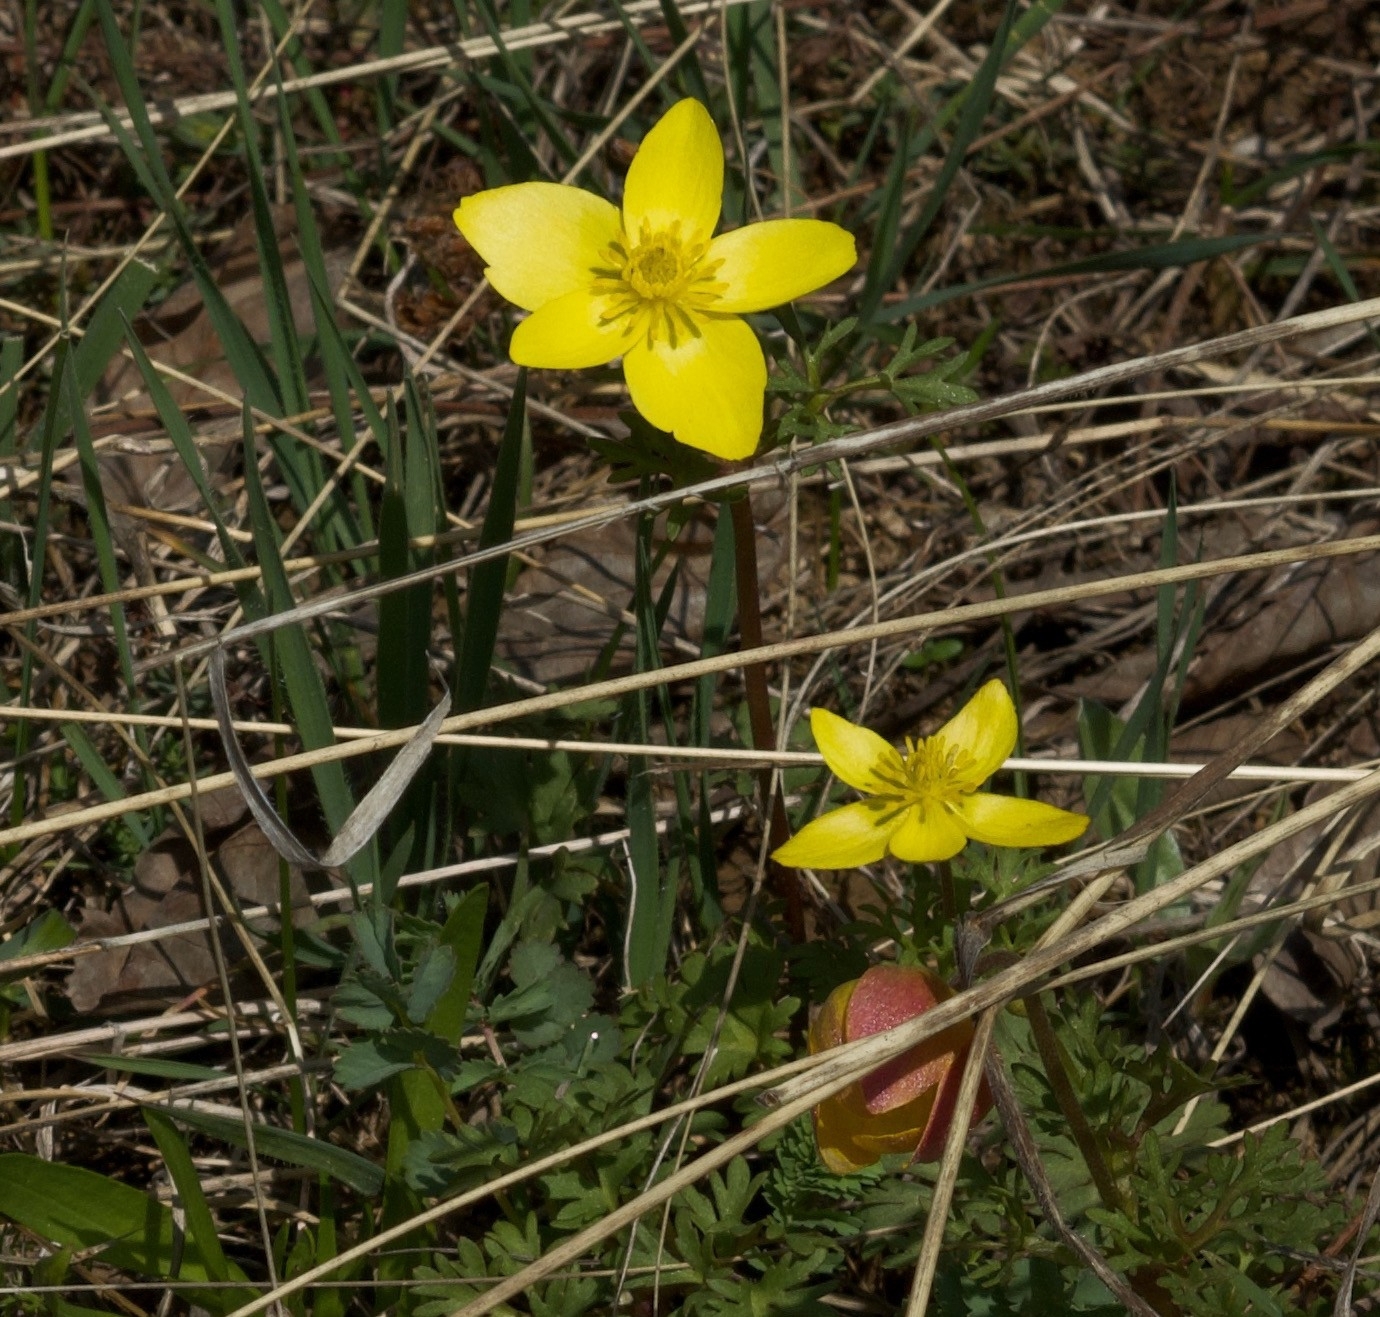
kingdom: Plantae
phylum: Tracheophyta
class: Magnoliopsida
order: Ranunculales
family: Ranunculaceae
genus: Anemone
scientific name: Anemone petiolulosa
